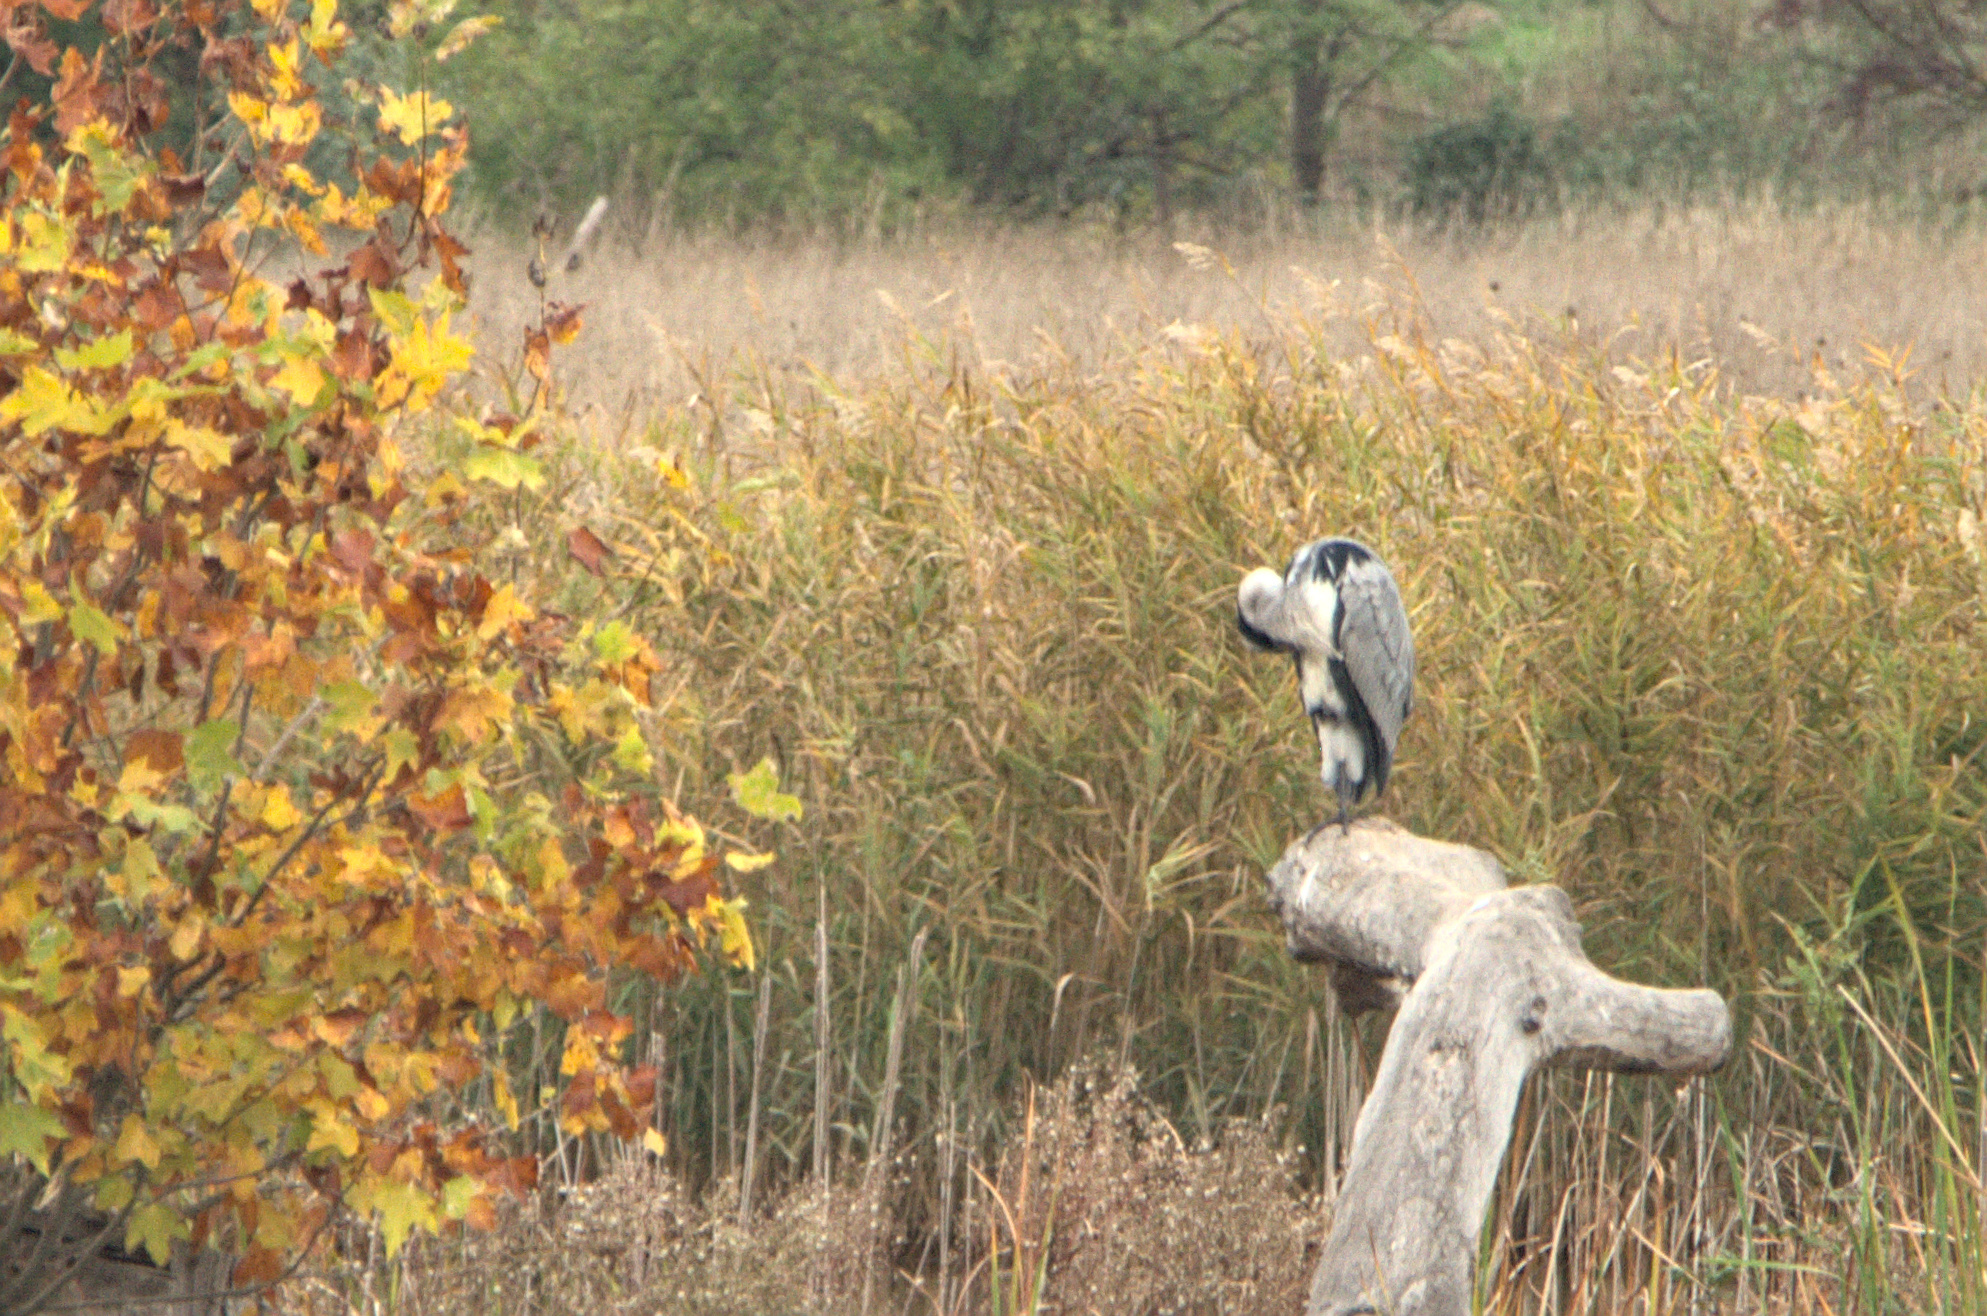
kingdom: Animalia
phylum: Chordata
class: Aves
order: Pelecaniformes
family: Ardeidae
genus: Ardea
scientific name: Ardea cinerea
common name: Grey heron
